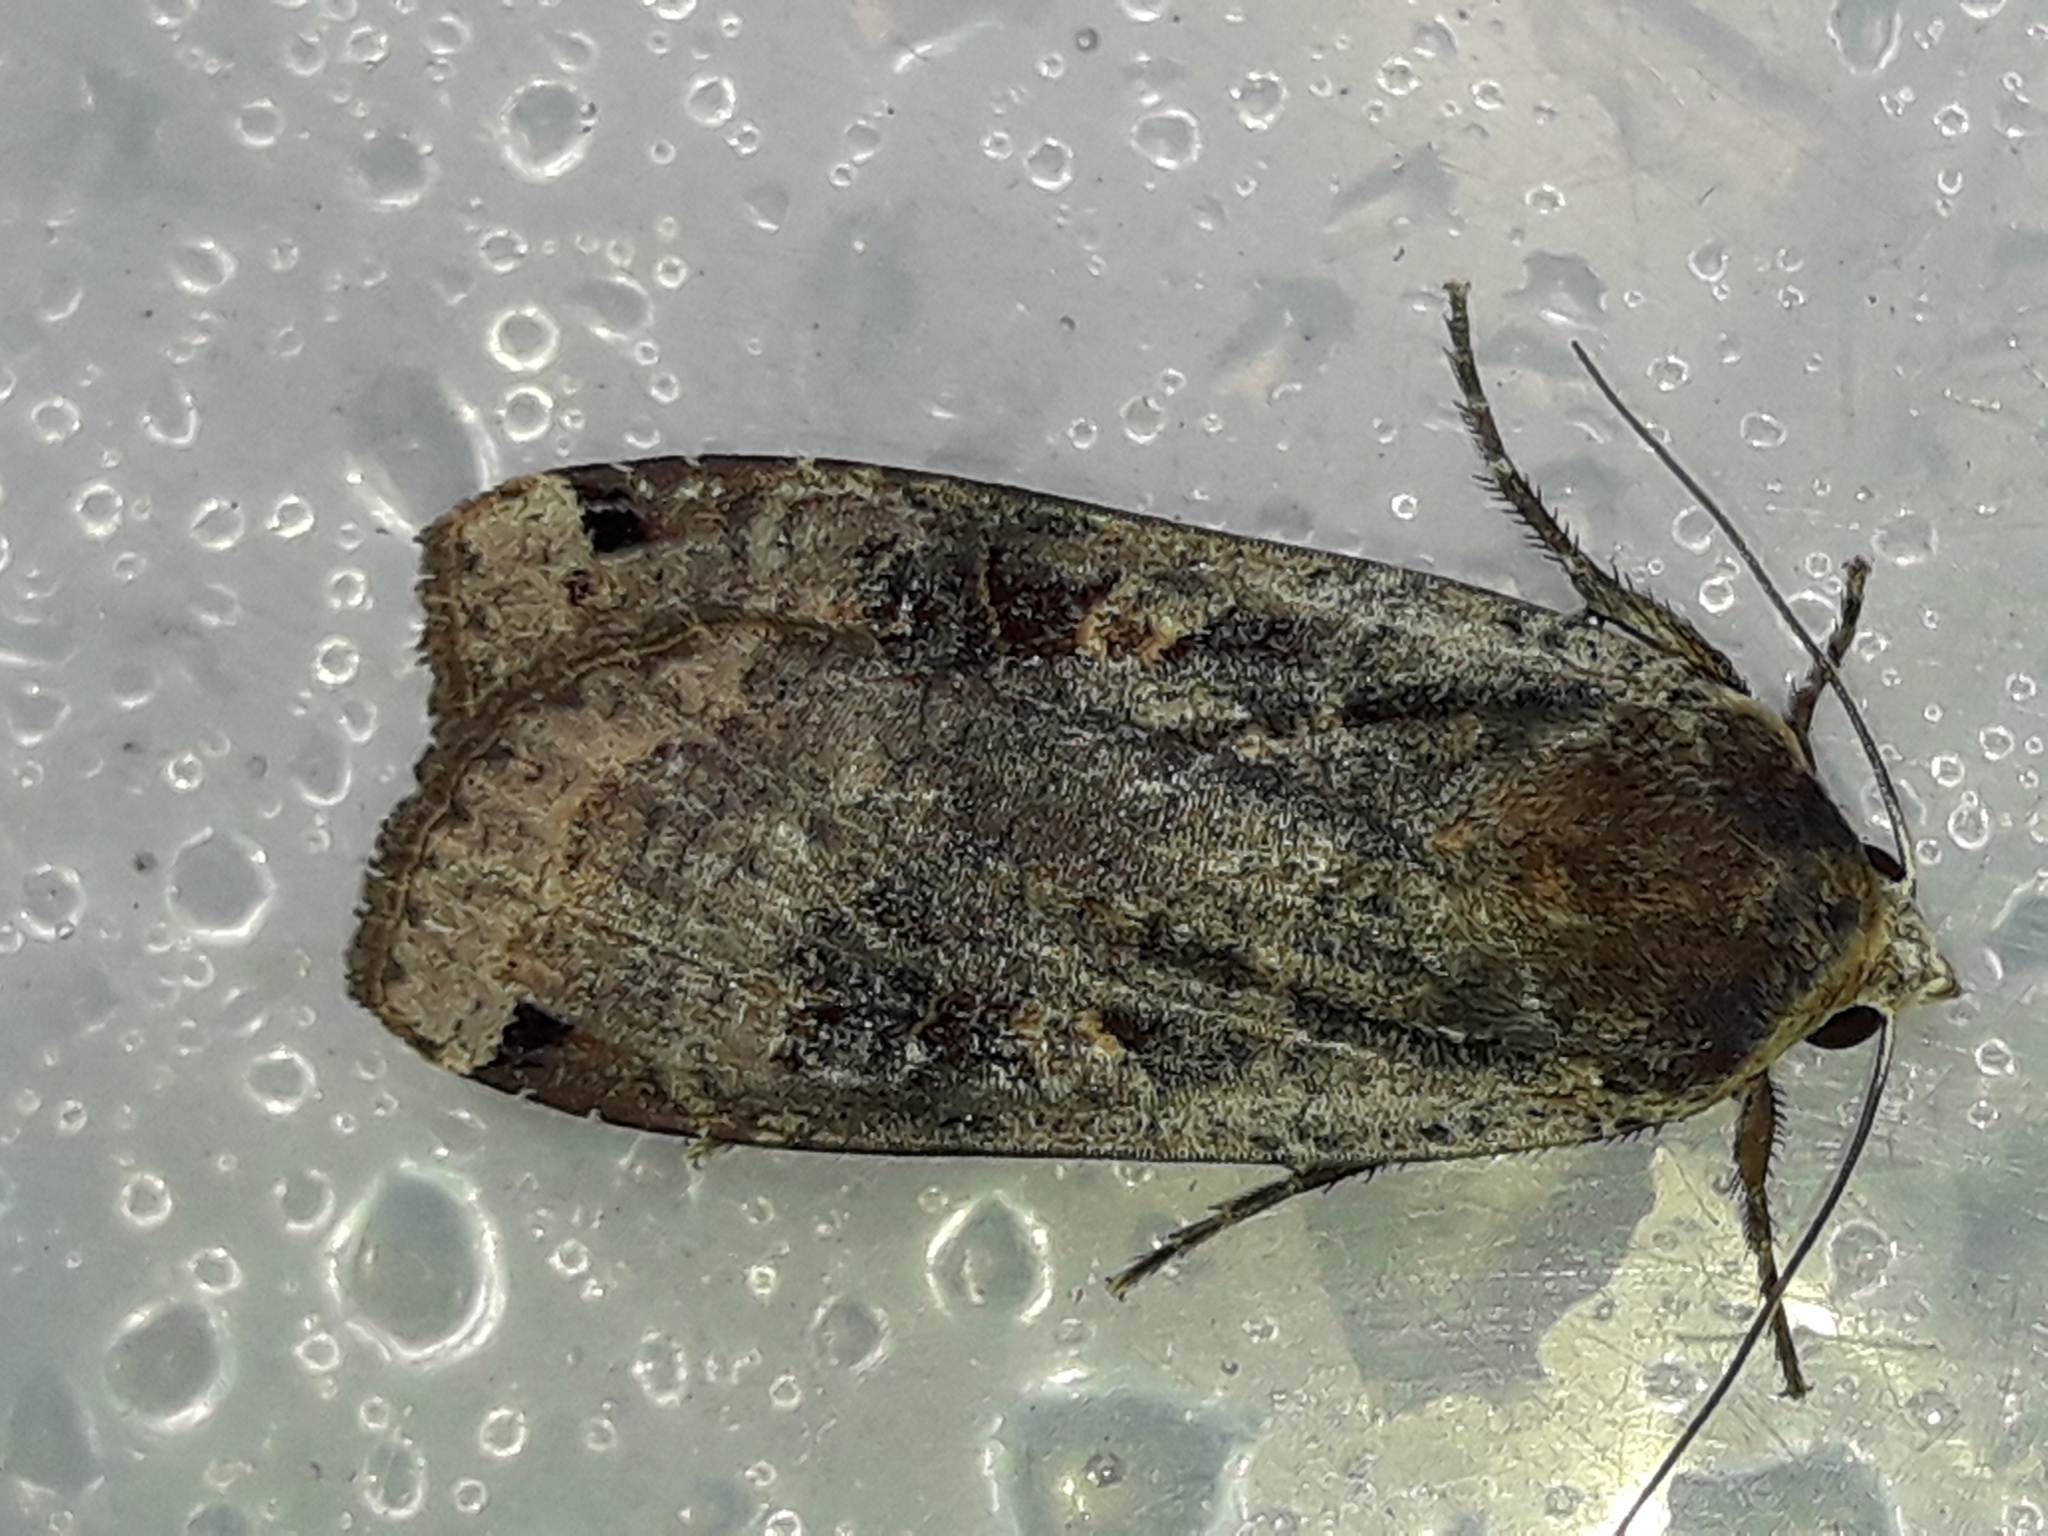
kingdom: Animalia
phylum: Arthropoda
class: Insecta
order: Lepidoptera
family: Noctuidae
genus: Noctua
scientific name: Noctua pronuba
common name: Large yellow underwing
